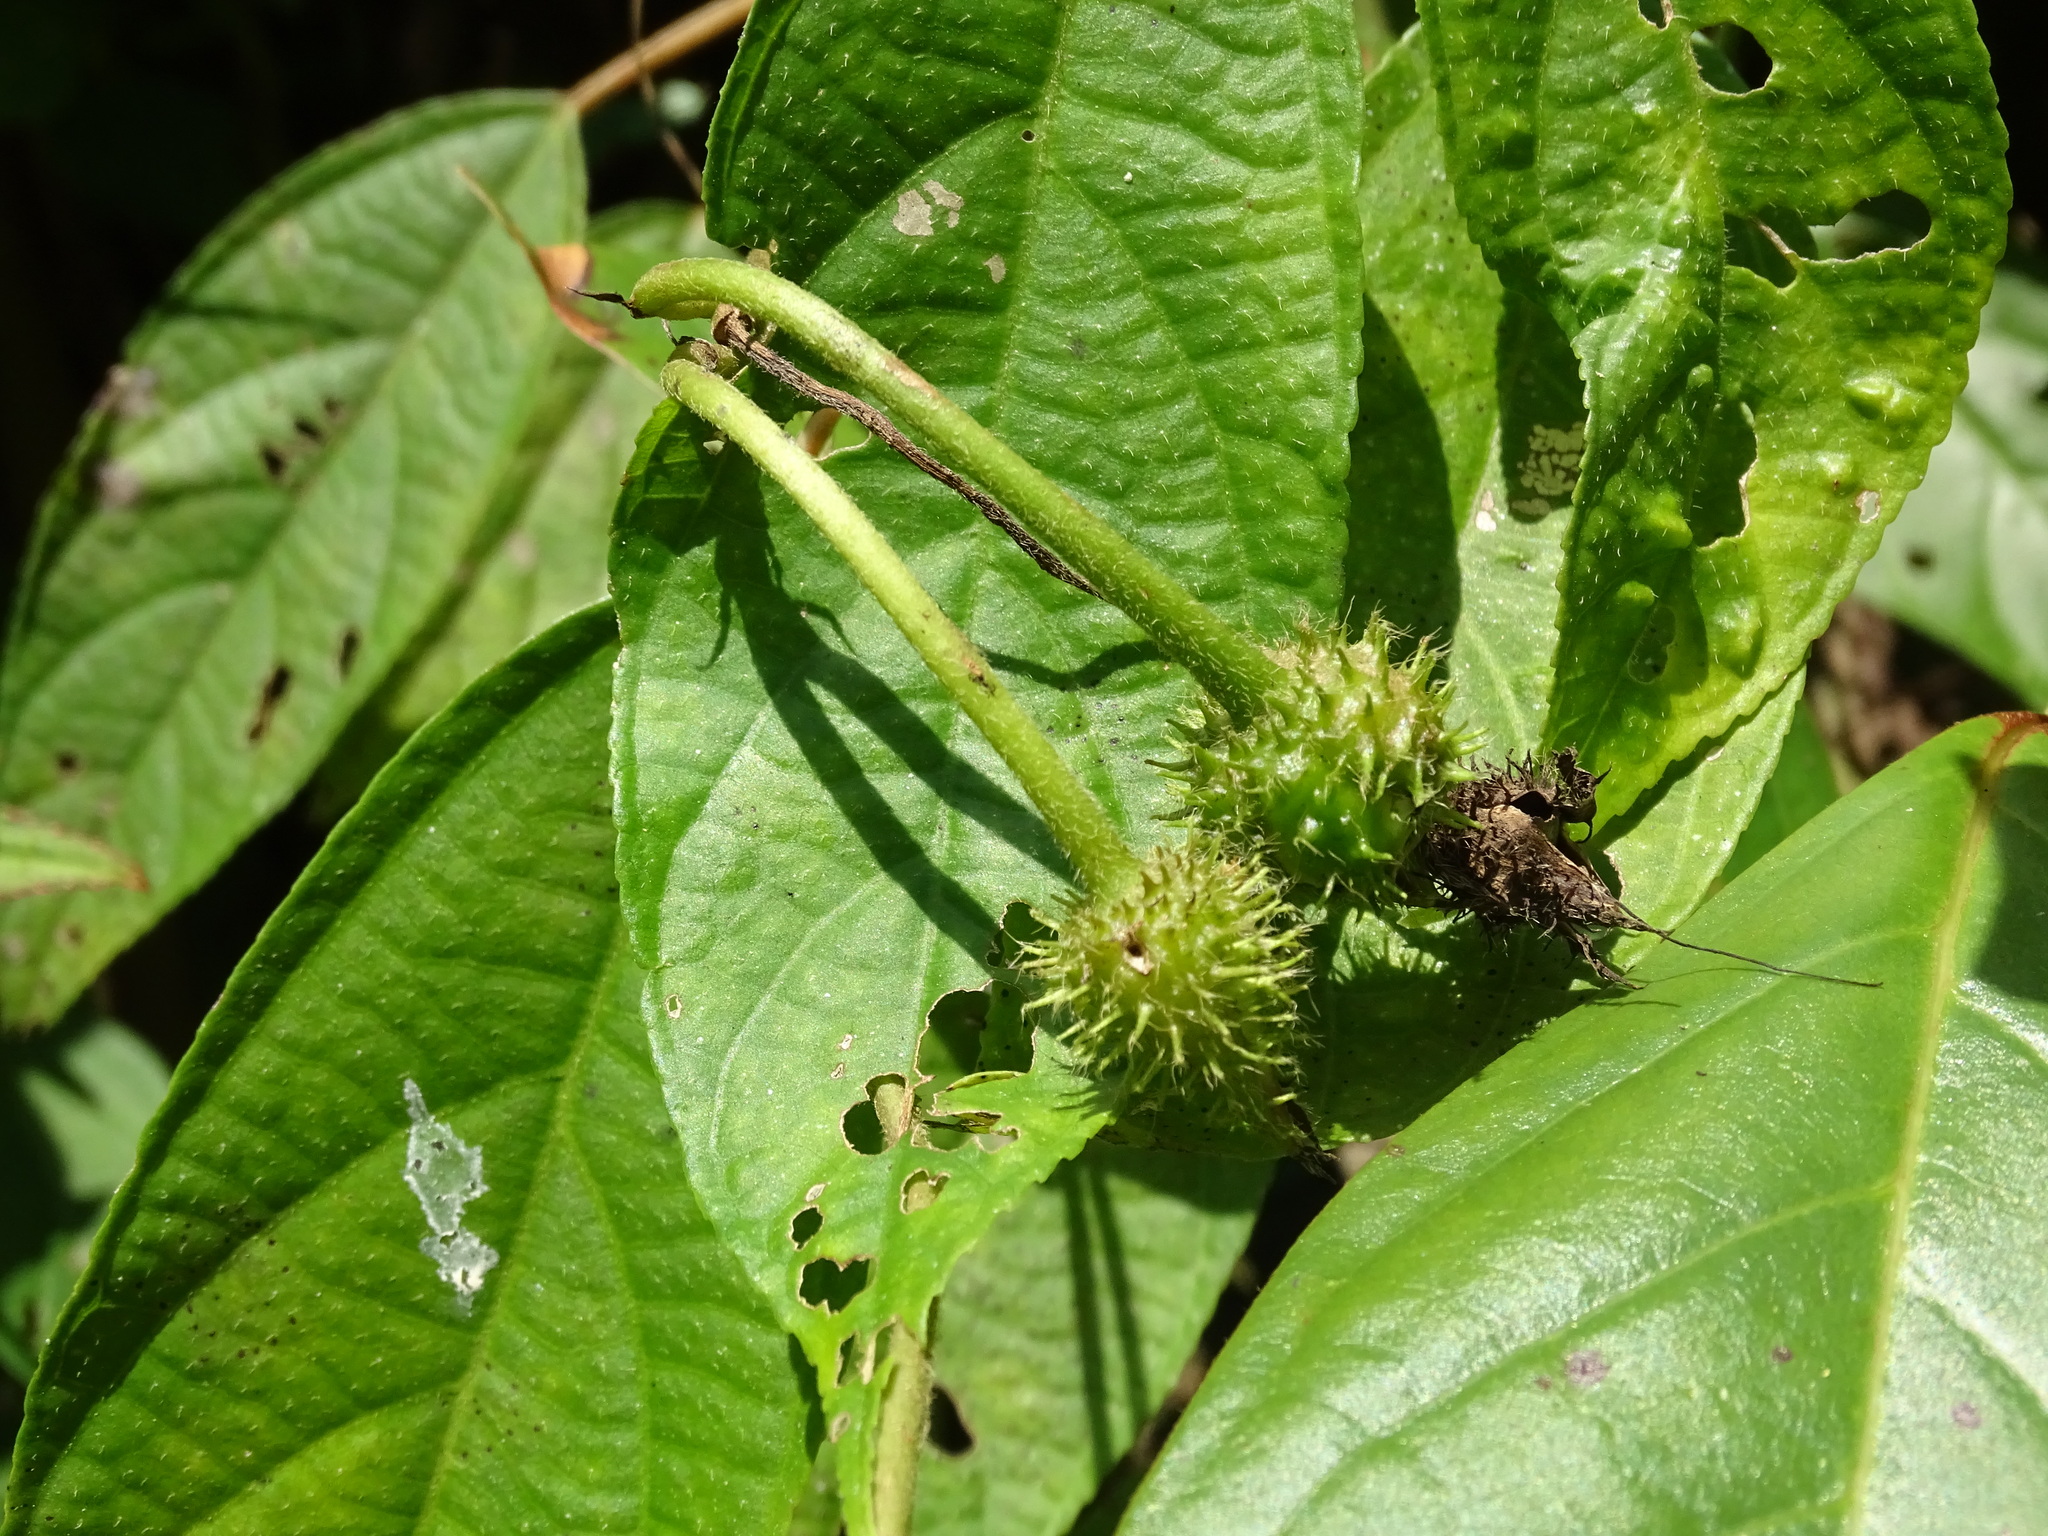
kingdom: Plantae
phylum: Tracheophyta
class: Magnoliopsida
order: Solanales
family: Convolvulaceae
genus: Ipomoea
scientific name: Ipomoea silvicola
